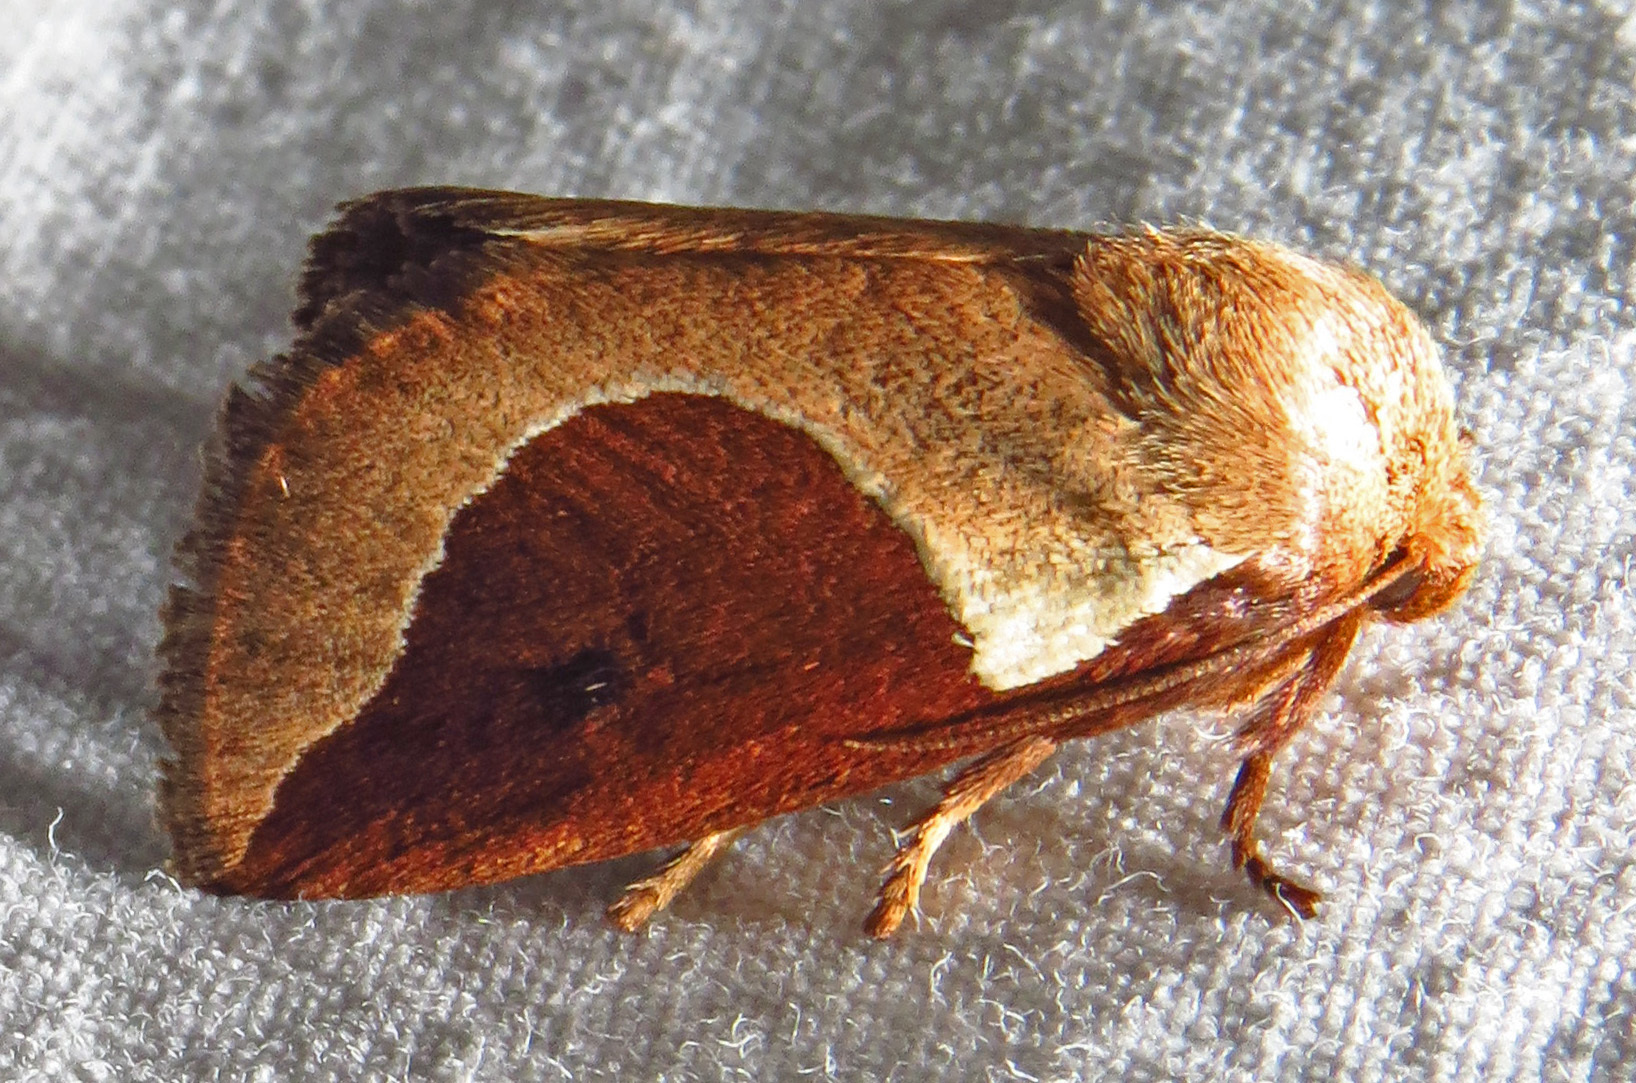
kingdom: Animalia
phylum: Arthropoda
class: Insecta
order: Lepidoptera
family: Limacodidae
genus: Prolimacodes
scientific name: Prolimacodes badia
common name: Skiff moth
